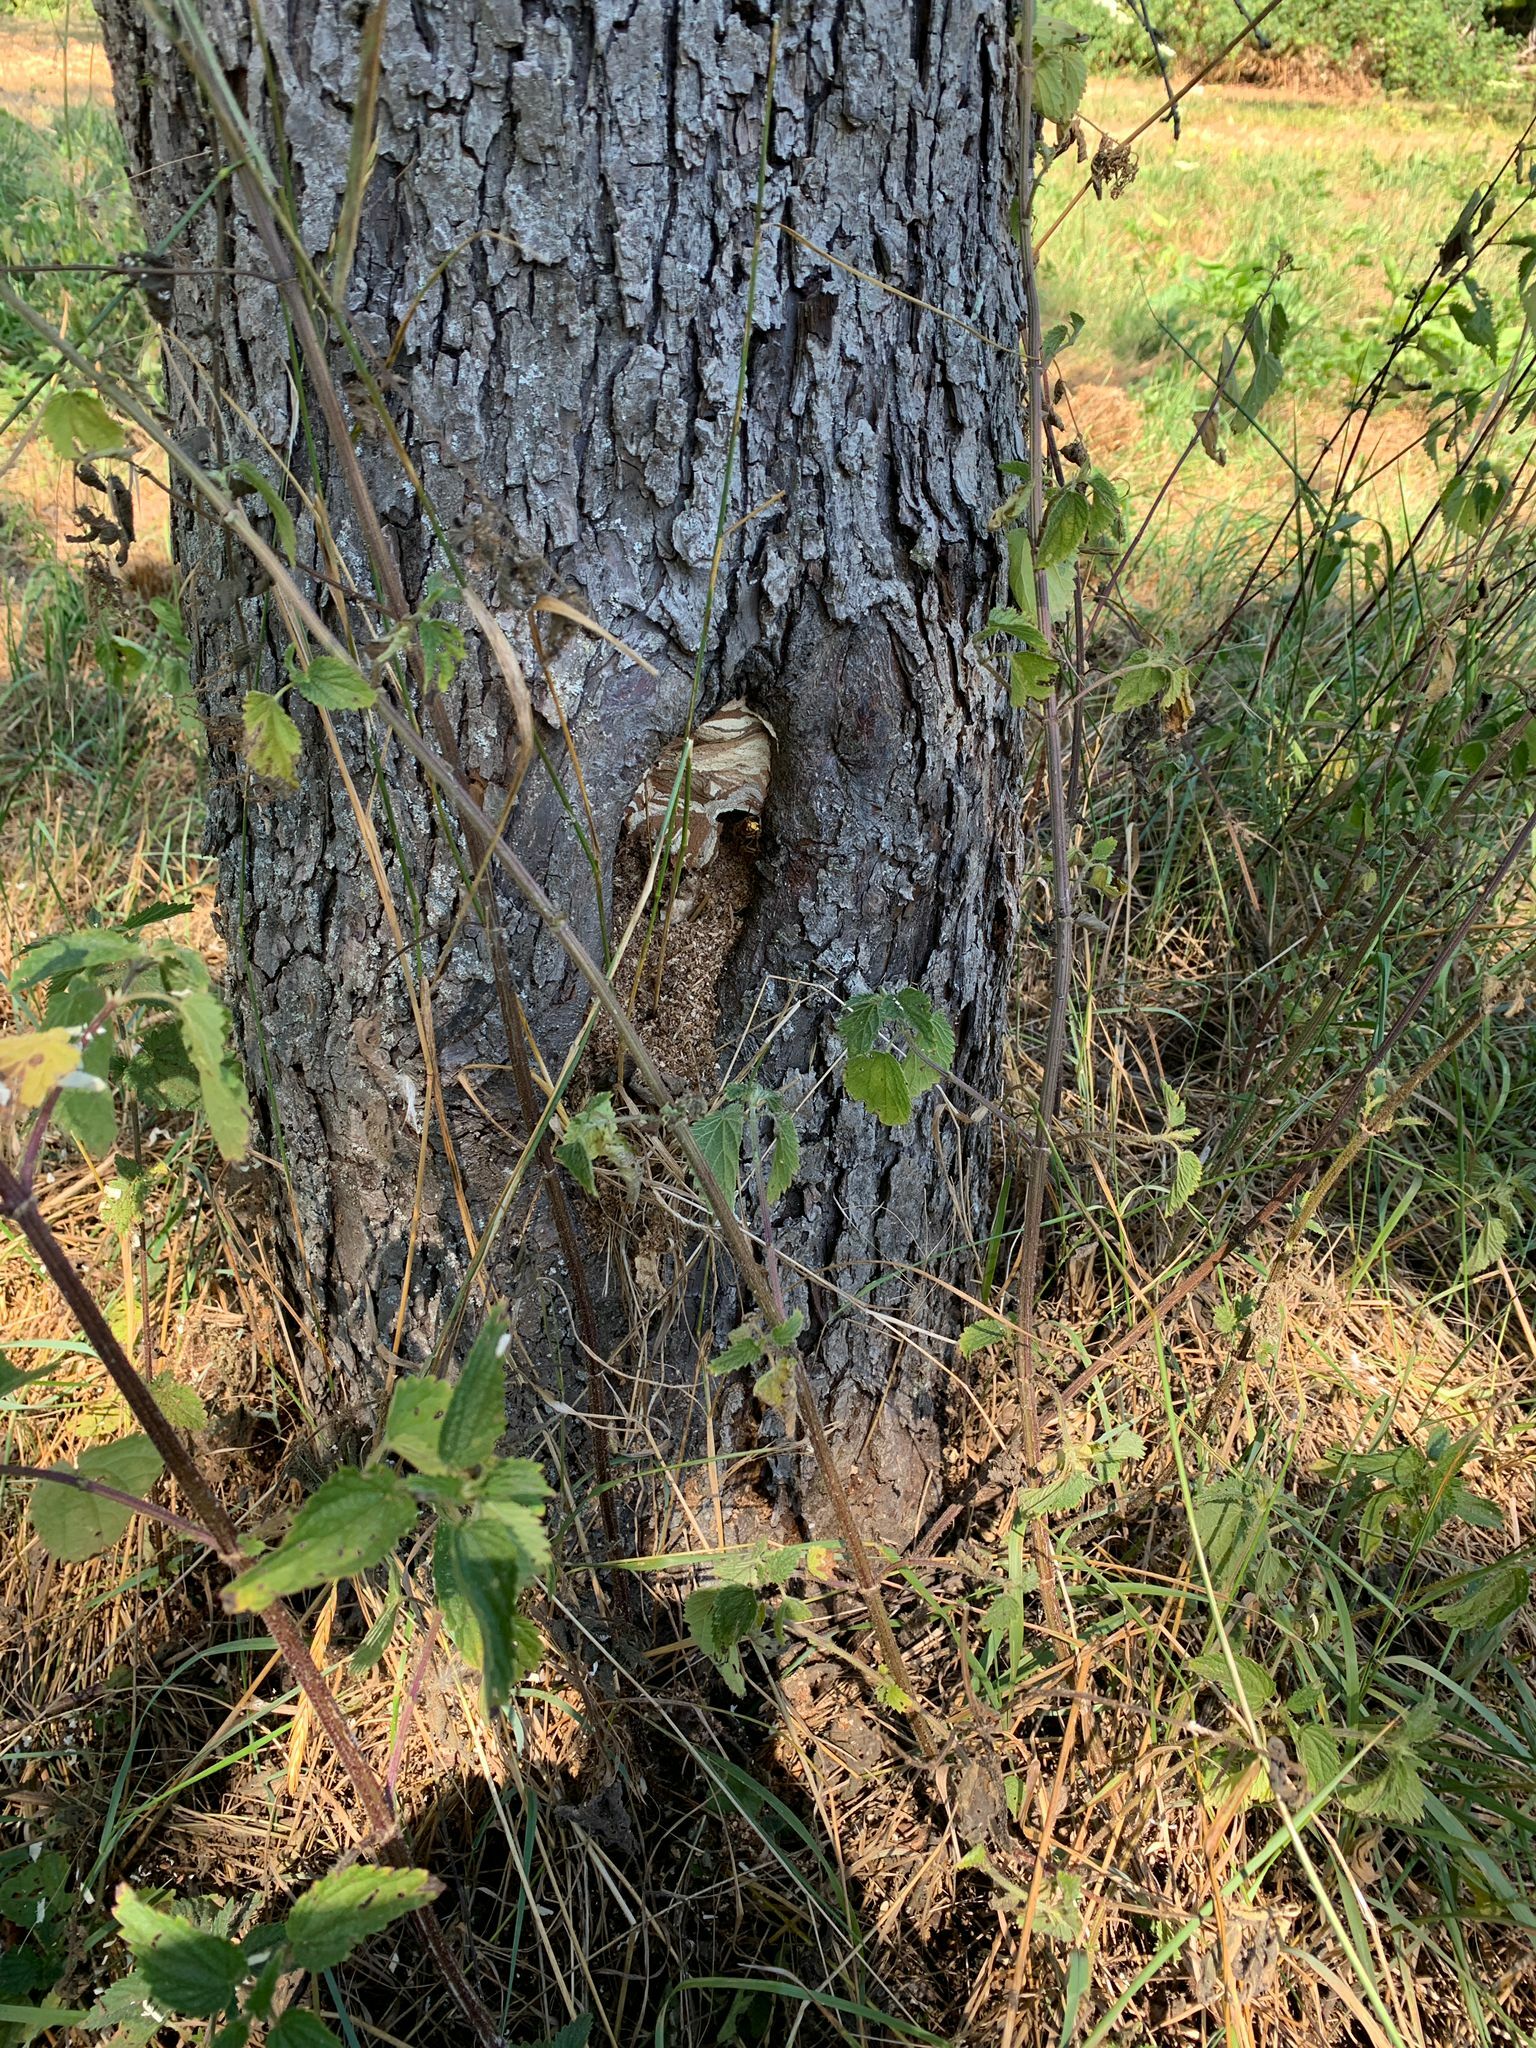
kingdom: Animalia
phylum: Arthropoda
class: Insecta
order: Hymenoptera
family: Vespidae
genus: Vespa
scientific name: Vespa crabro
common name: Hornet
